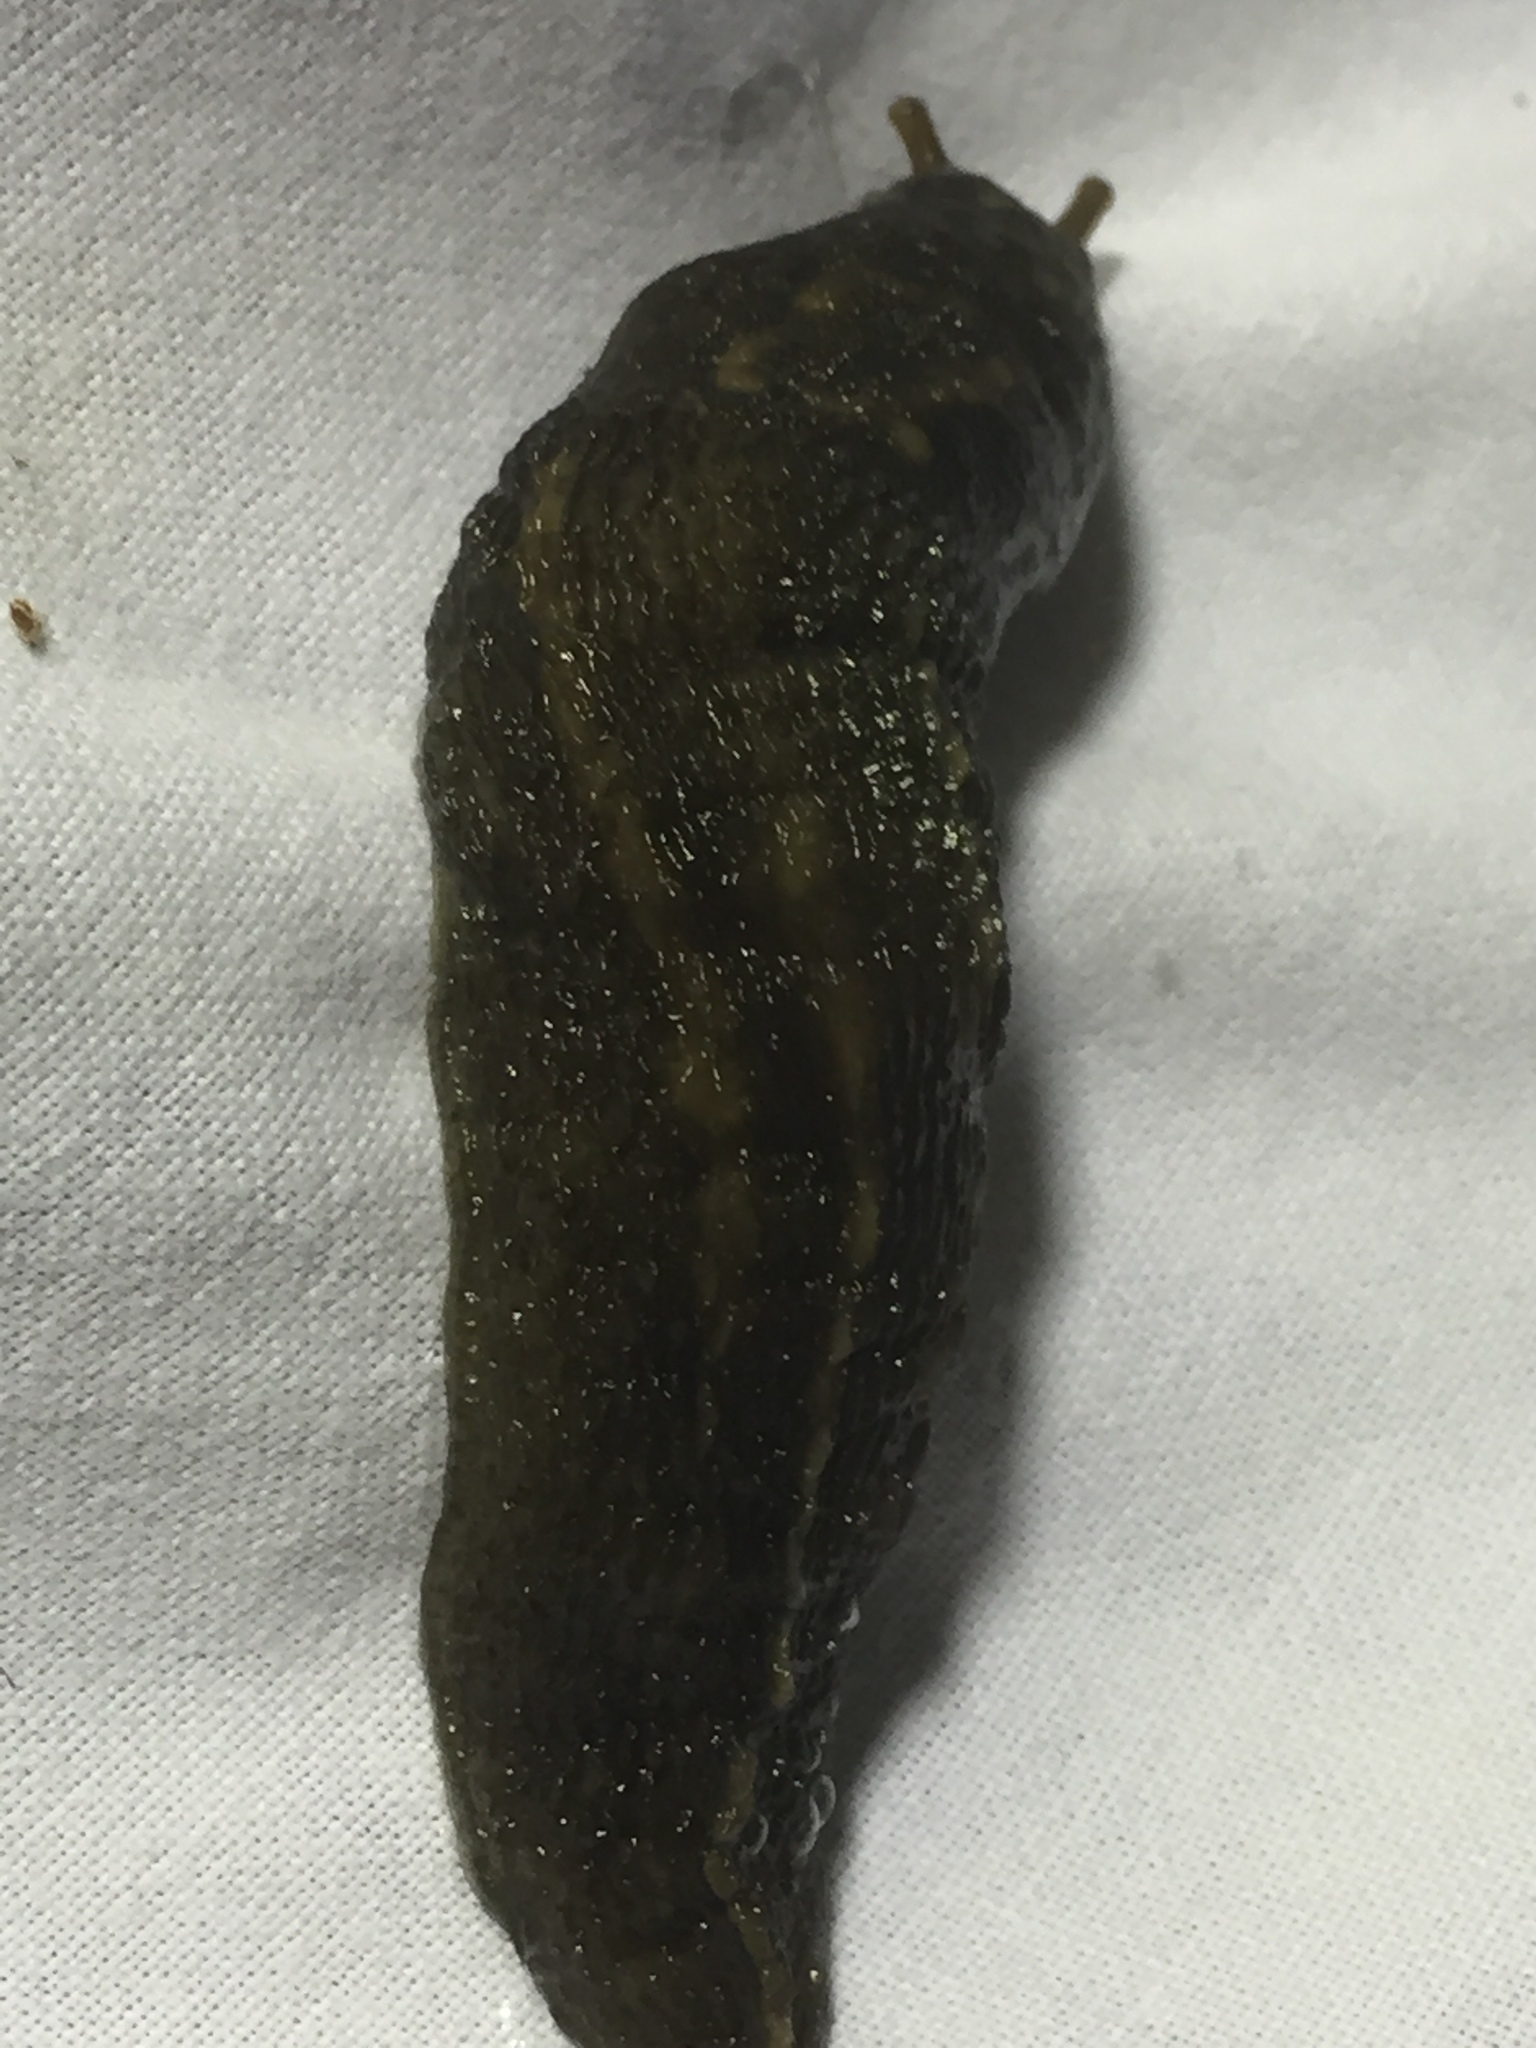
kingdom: Animalia
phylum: Mollusca
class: Gastropoda
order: Stylommatophora
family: Limacidae
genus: Limax
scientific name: Limax maximus
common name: Great grey slug
